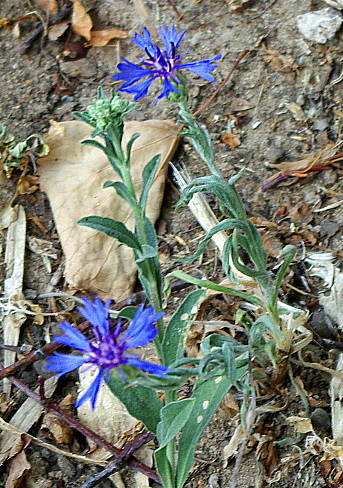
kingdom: Plantae
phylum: Tracheophyta
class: Magnoliopsida
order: Asterales
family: Asteraceae
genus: Centaurea
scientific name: Centaurea cyanus
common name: Cornflower
